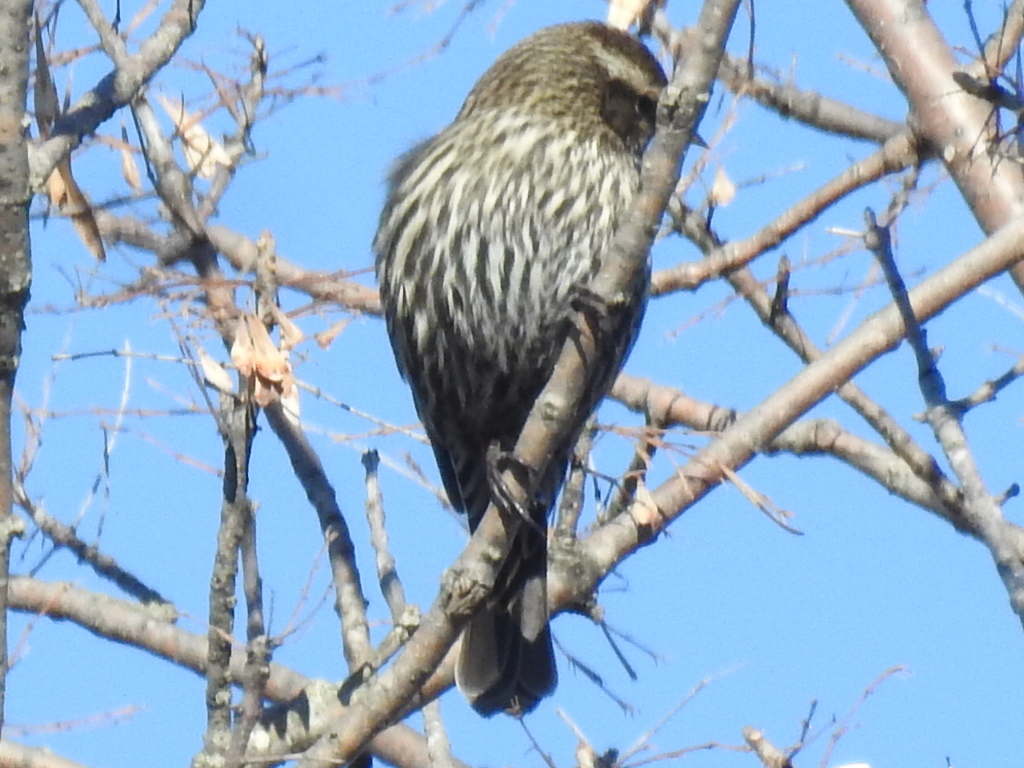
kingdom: Animalia
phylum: Chordata
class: Aves
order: Passeriformes
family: Icteridae
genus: Agelaius
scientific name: Agelaius phoeniceus
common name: Red-winged blackbird
